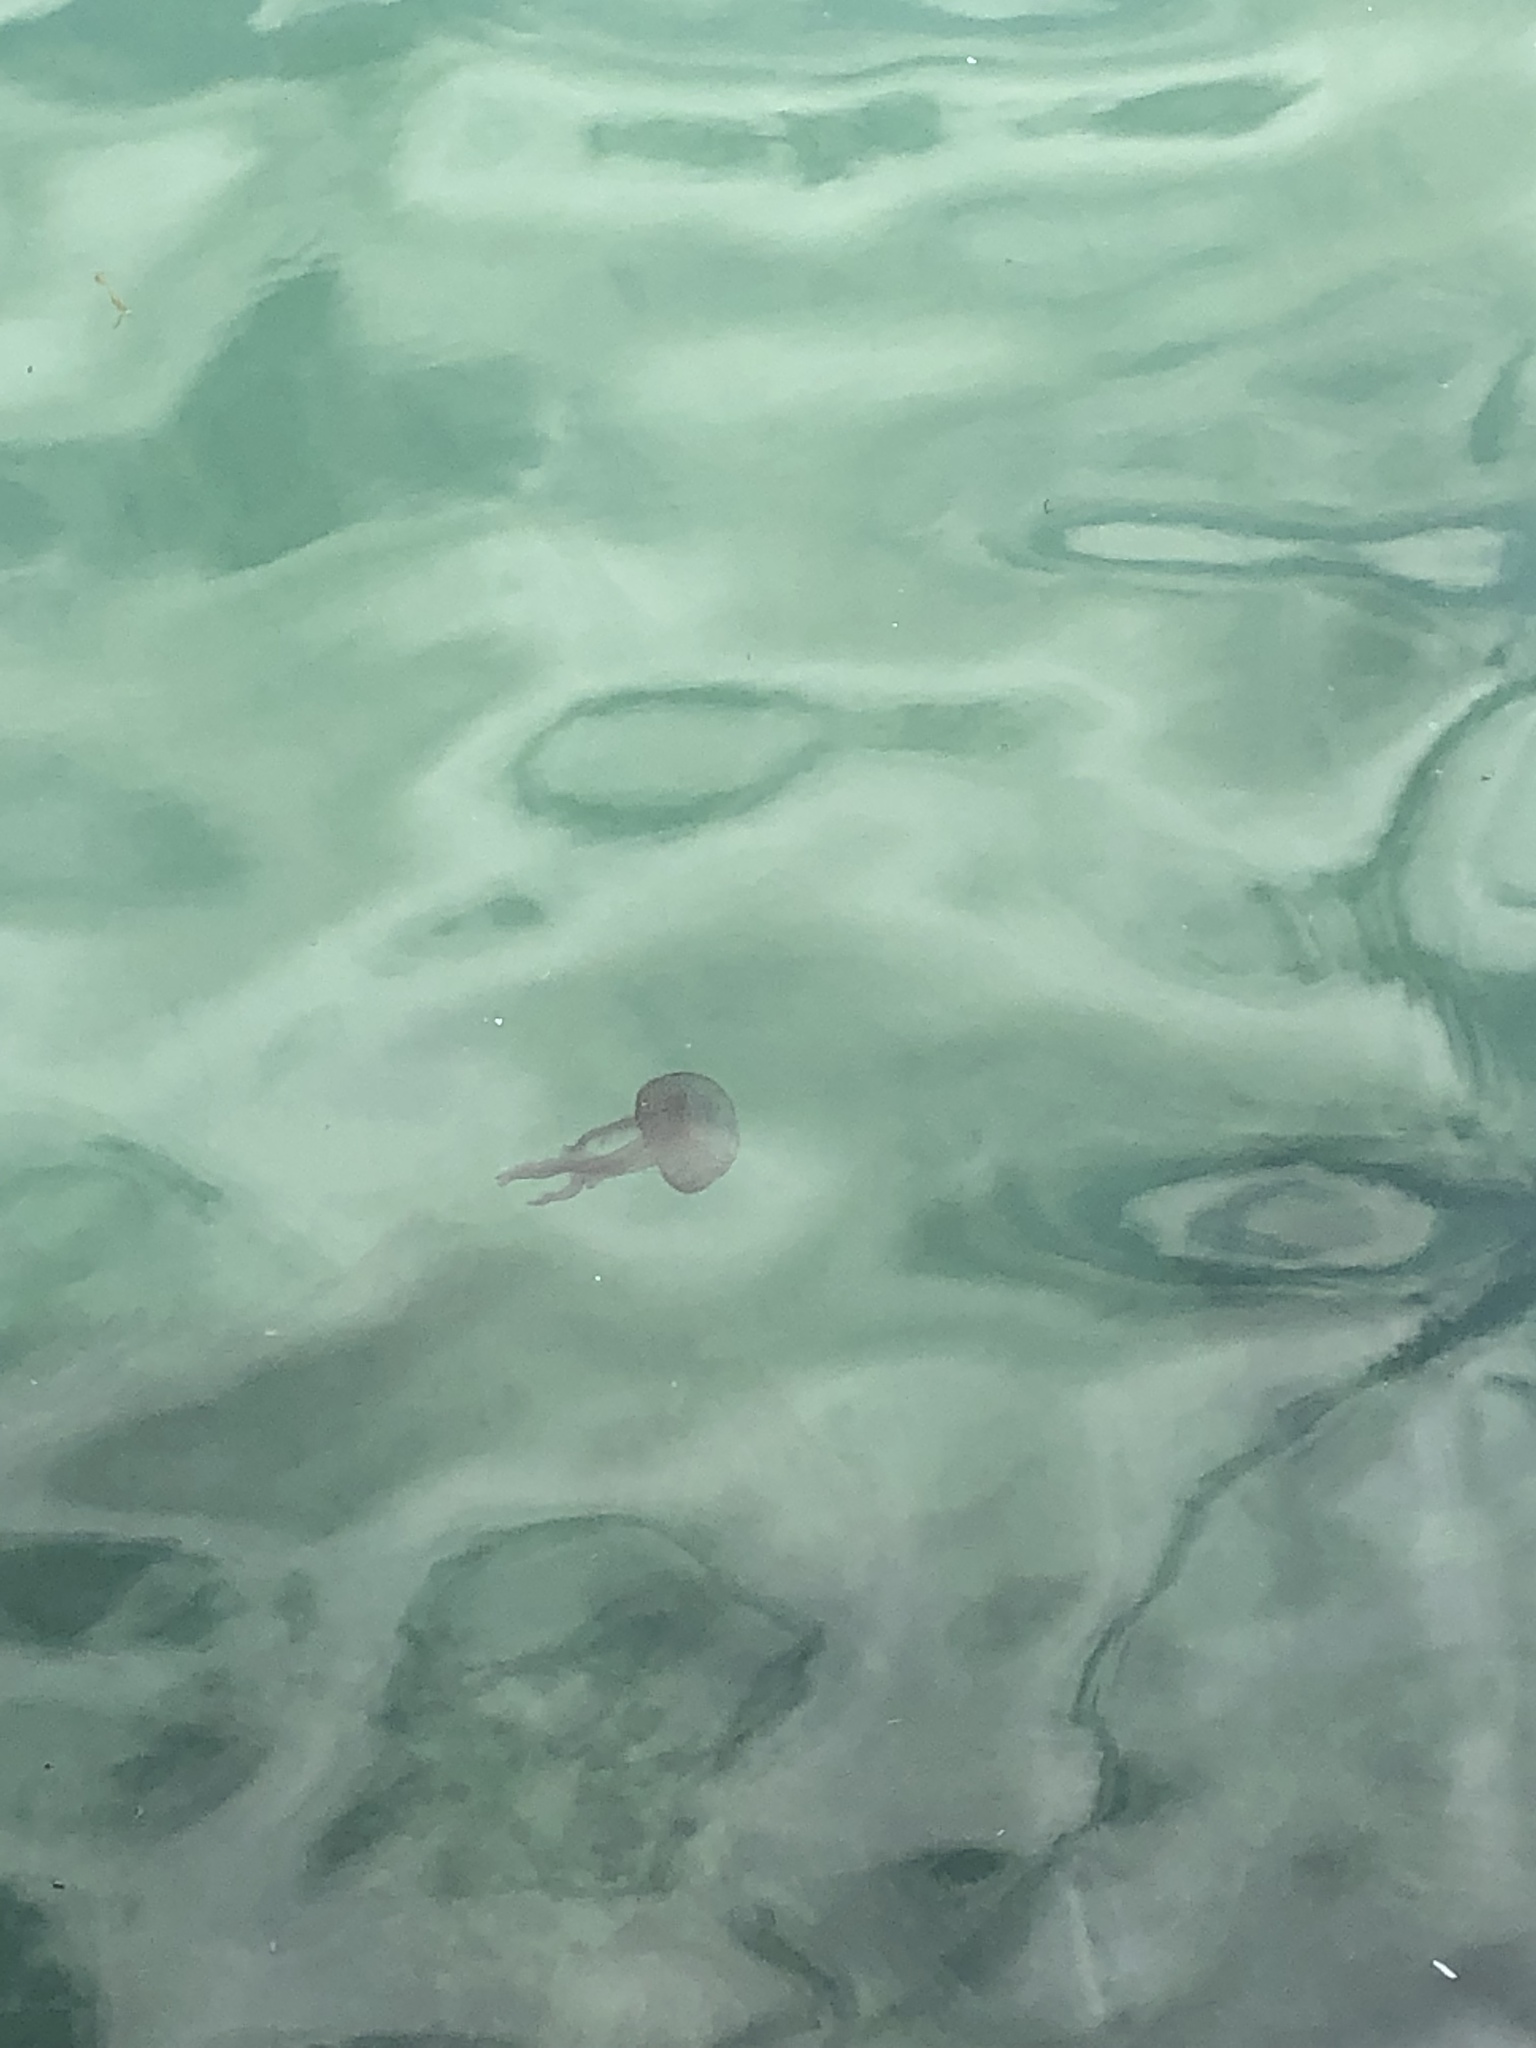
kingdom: Animalia
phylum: Cnidaria
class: Scyphozoa
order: Semaeostomeae
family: Pelagiidae
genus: Pelagia
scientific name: Pelagia noctiluca
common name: Mauve stinger
